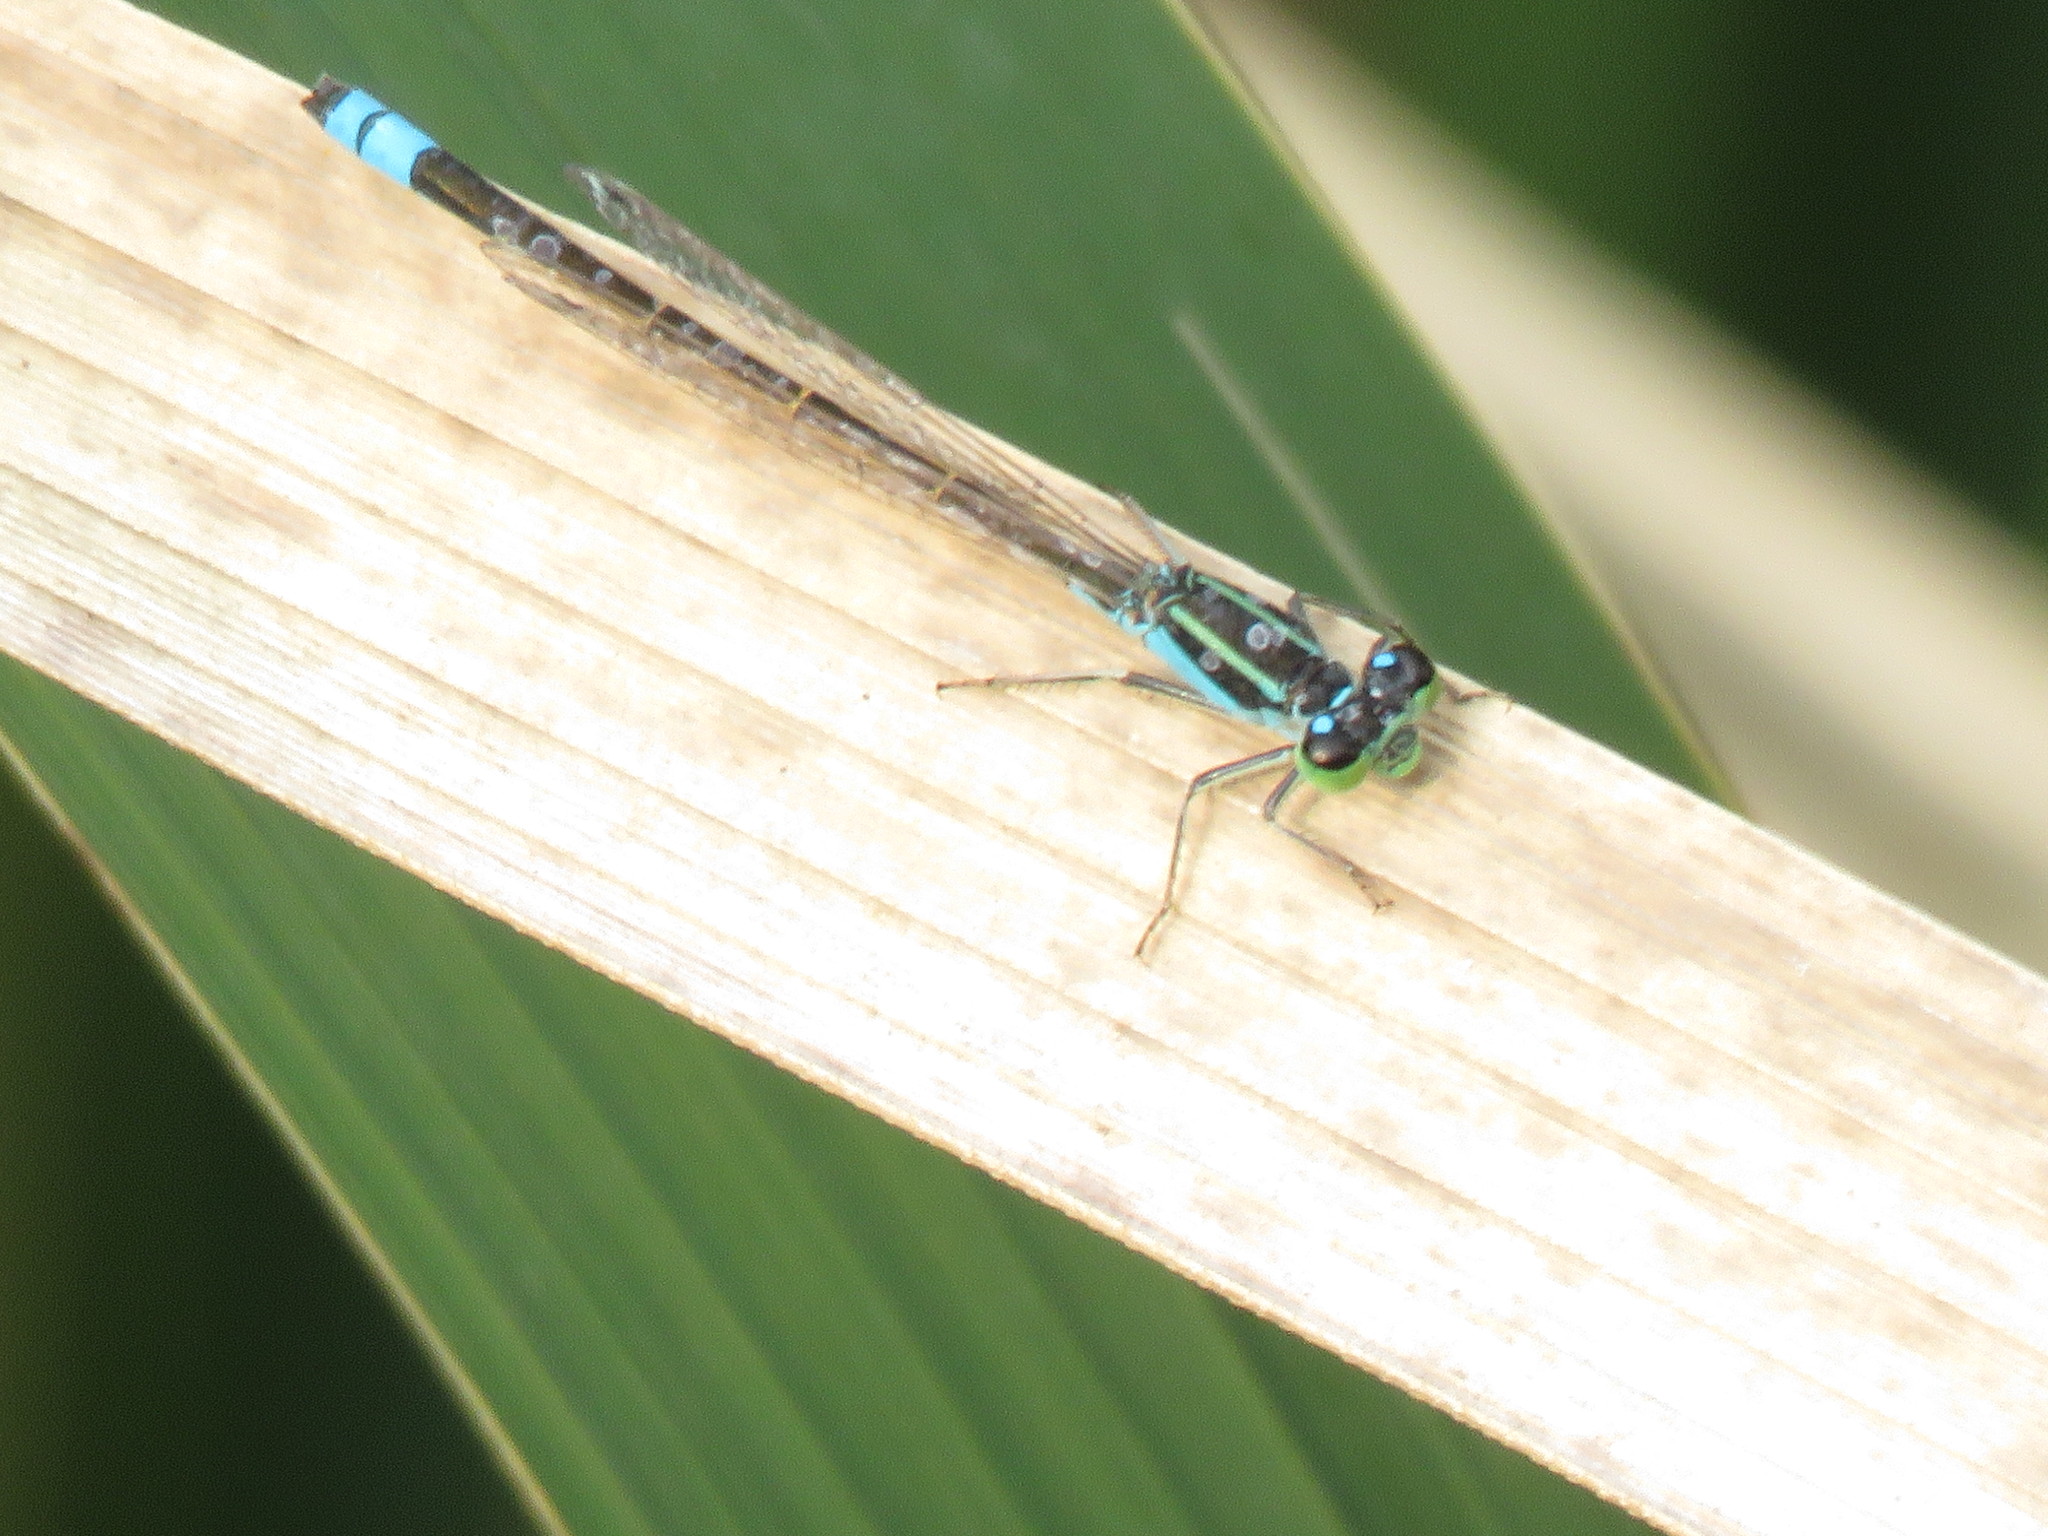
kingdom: Animalia
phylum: Arthropoda
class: Insecta
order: Odonata
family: Coenagrionidae
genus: Ischnura
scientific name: Ischnura fluviatilis
